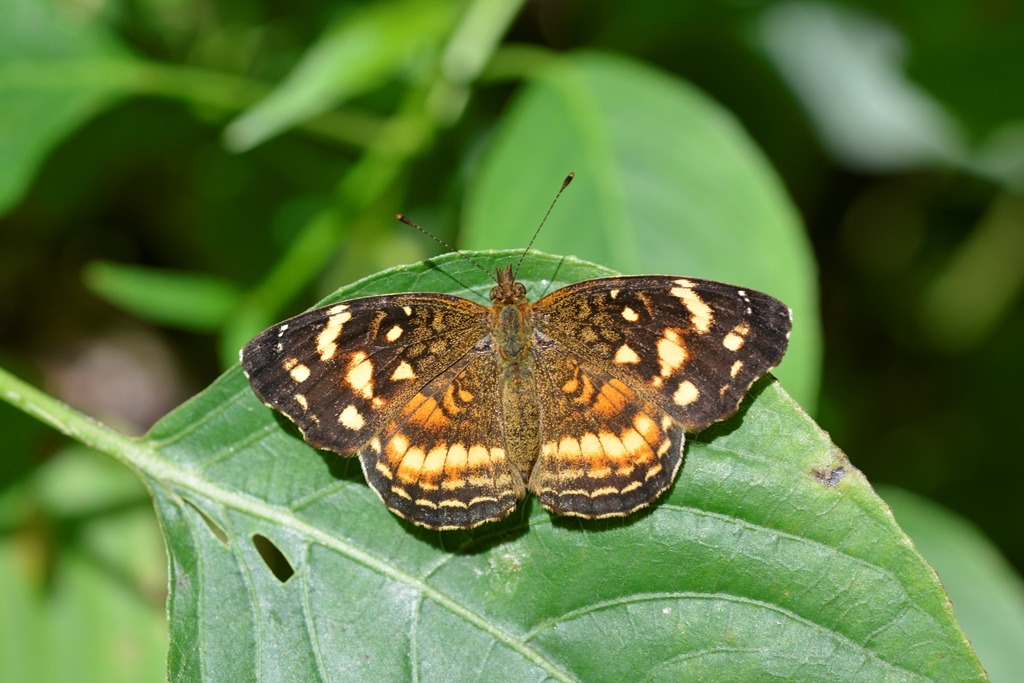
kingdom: Animalia
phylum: Arthropoda
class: Insecta
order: Lepidoptera
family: Nymphalidae
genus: Anthanassa
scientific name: Anthanassa tulcis
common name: Pale-banded crescent
